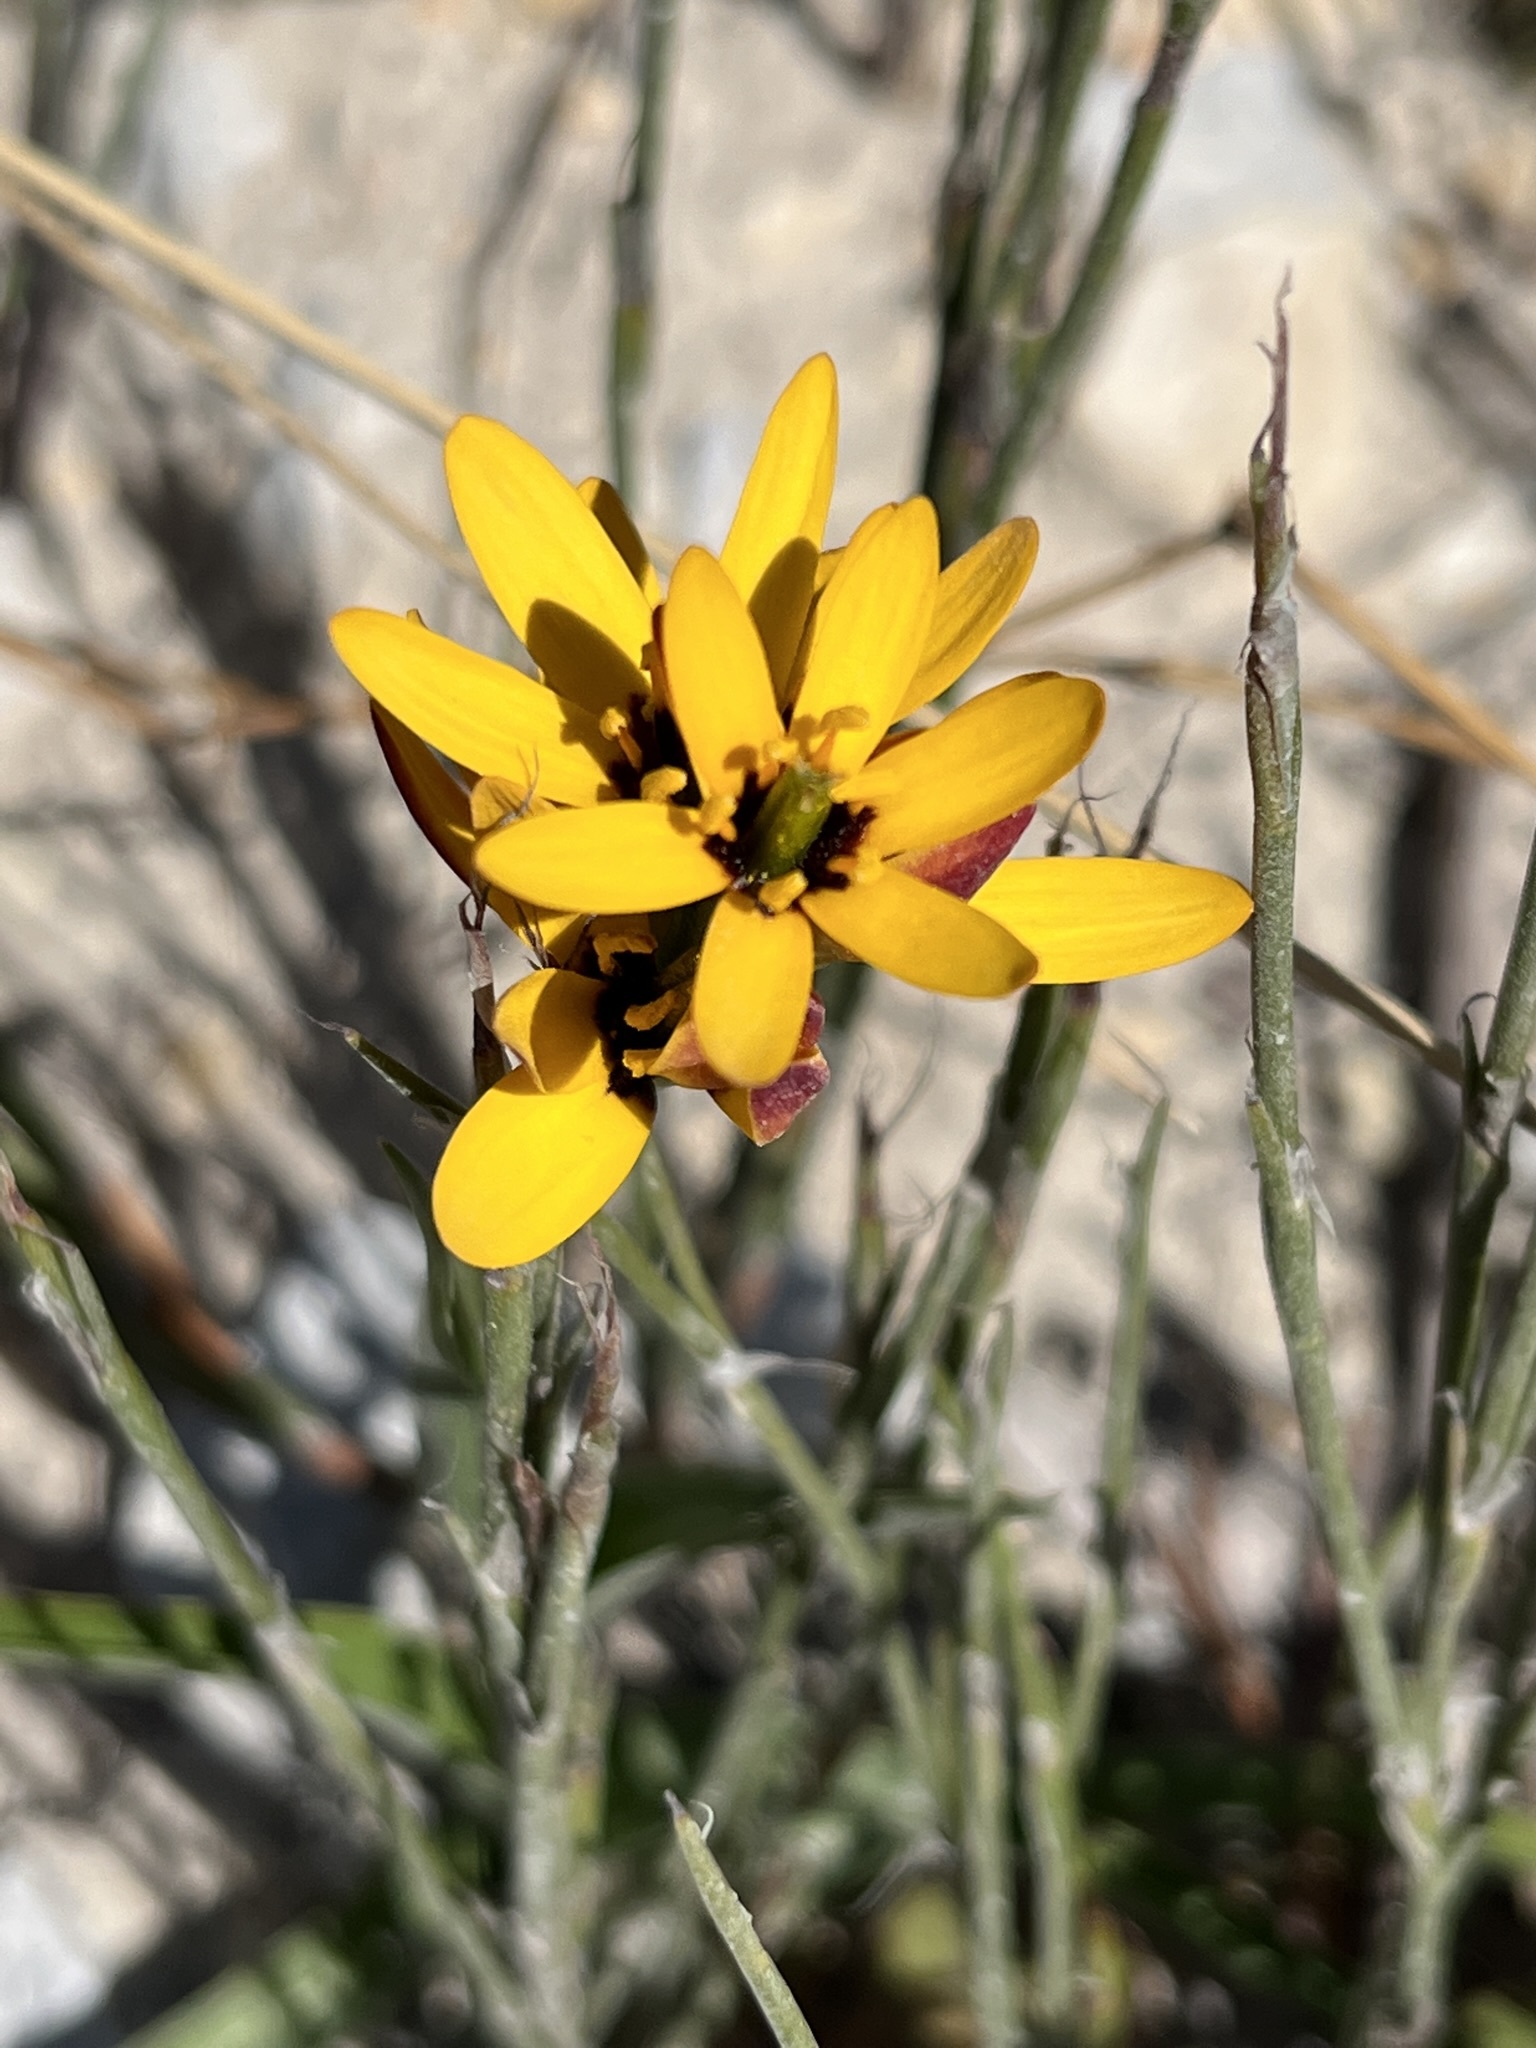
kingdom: Plantae
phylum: Tracheophyta
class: Liliopsida
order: Liliales
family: Colchicaceae
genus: Baeometra
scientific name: Baeometra uniflora
